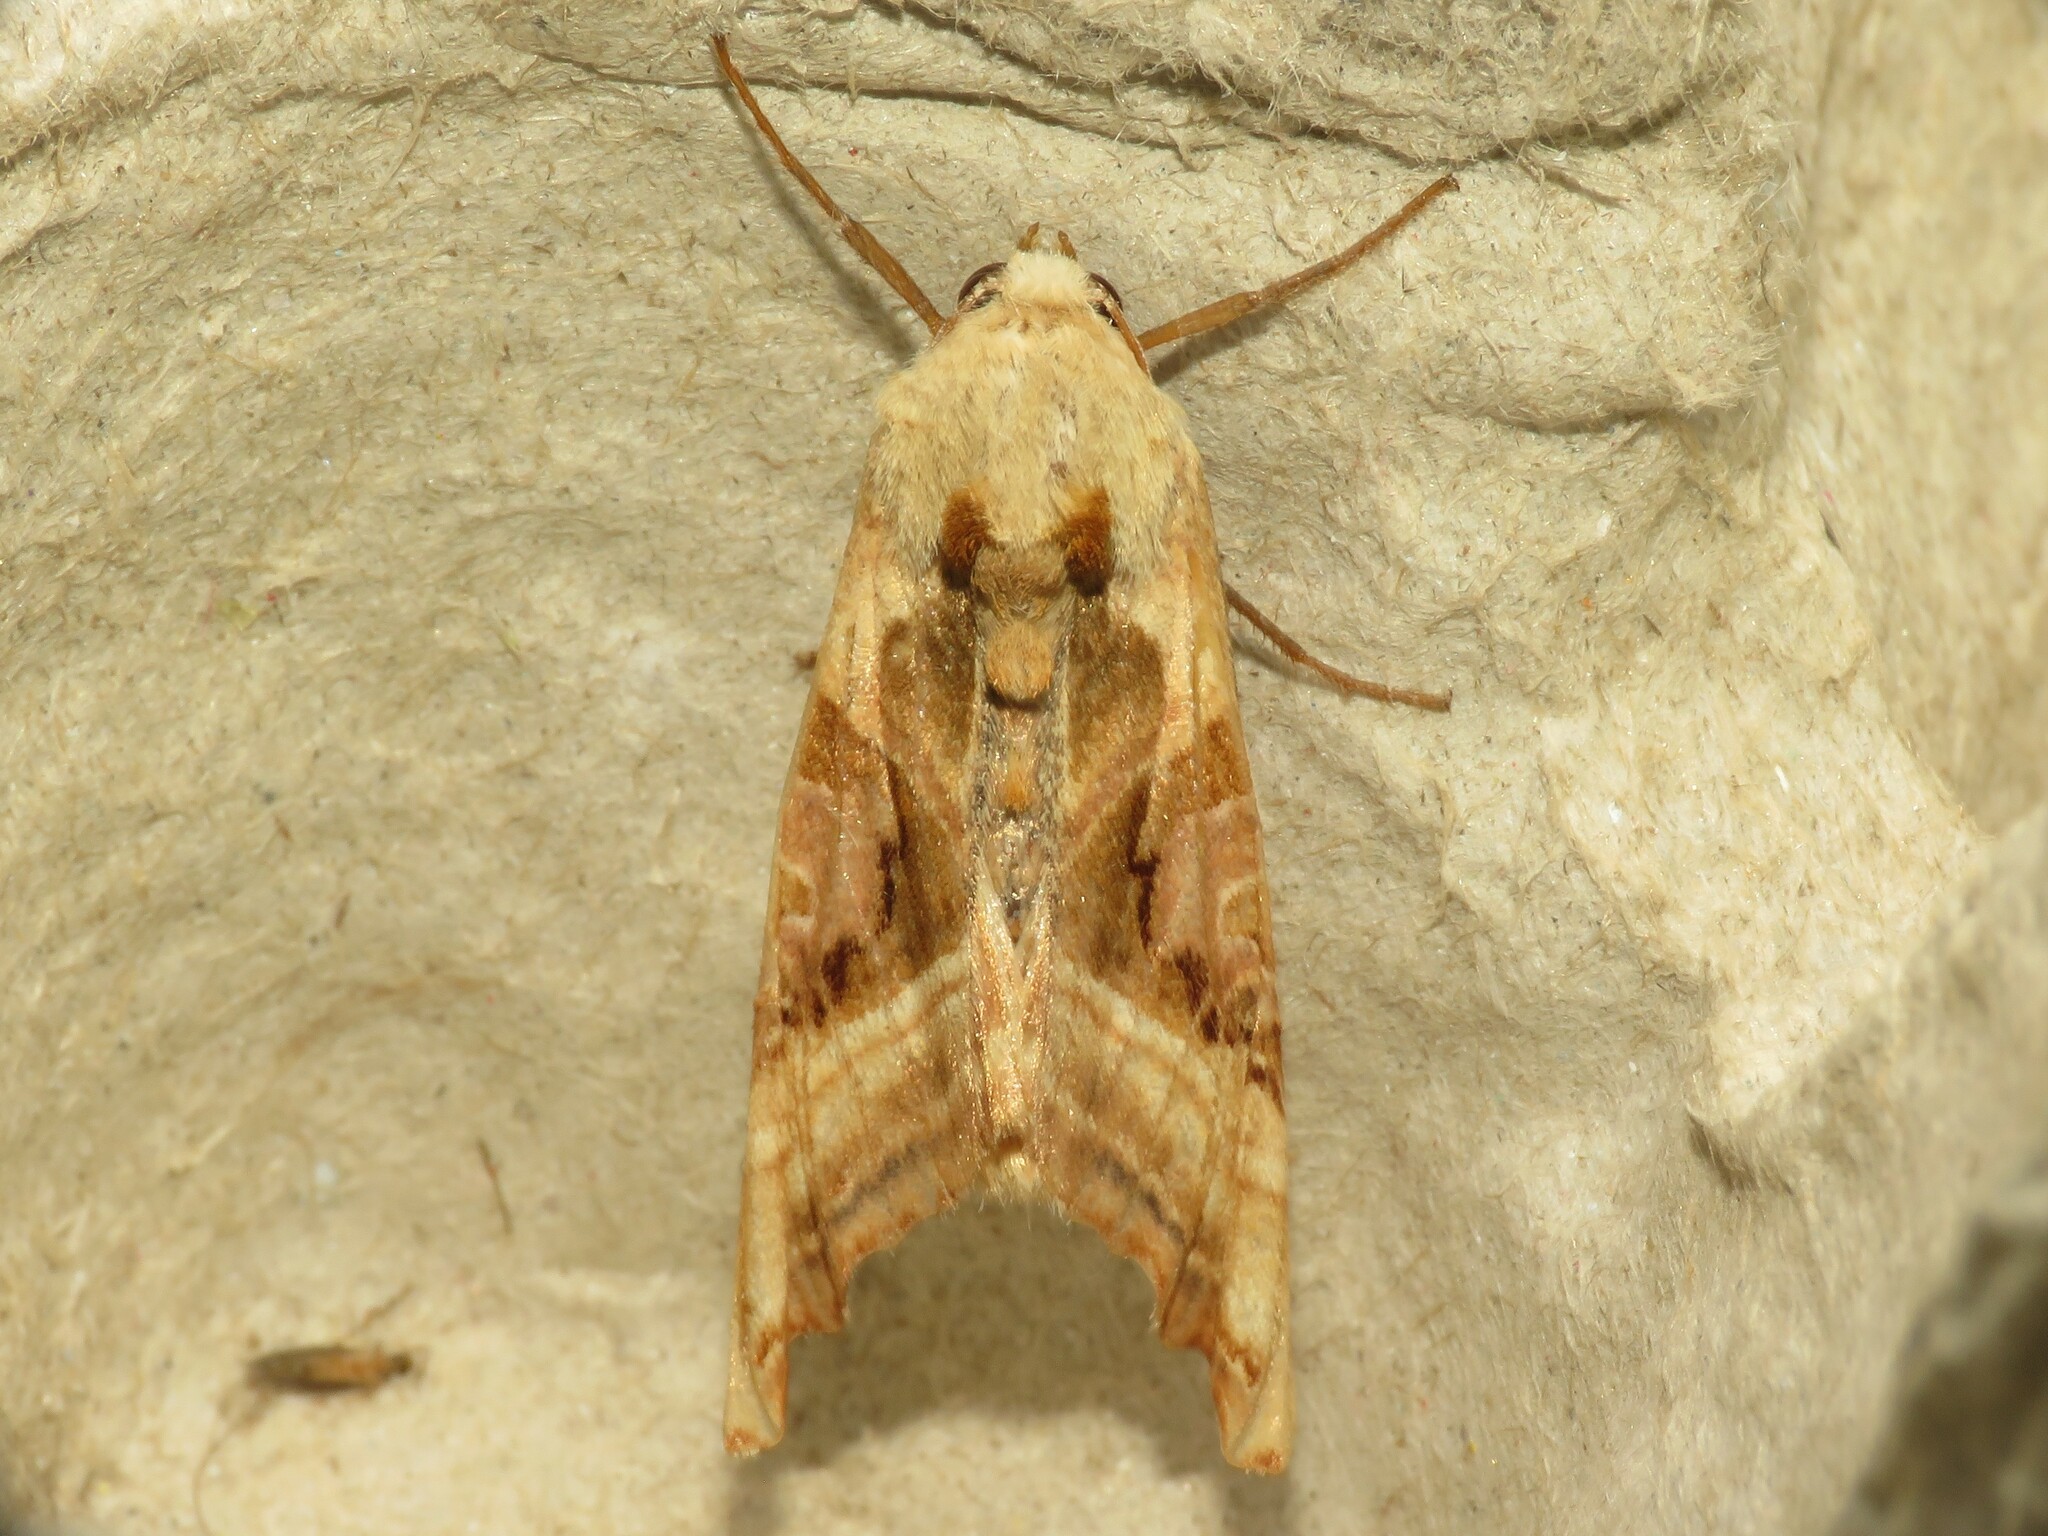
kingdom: Animalia
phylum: Arthropoda
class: Insecta
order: Lepidoptera
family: Noctuidae
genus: Phlogophora
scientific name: Phlogophora iris
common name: Olive angle shades
